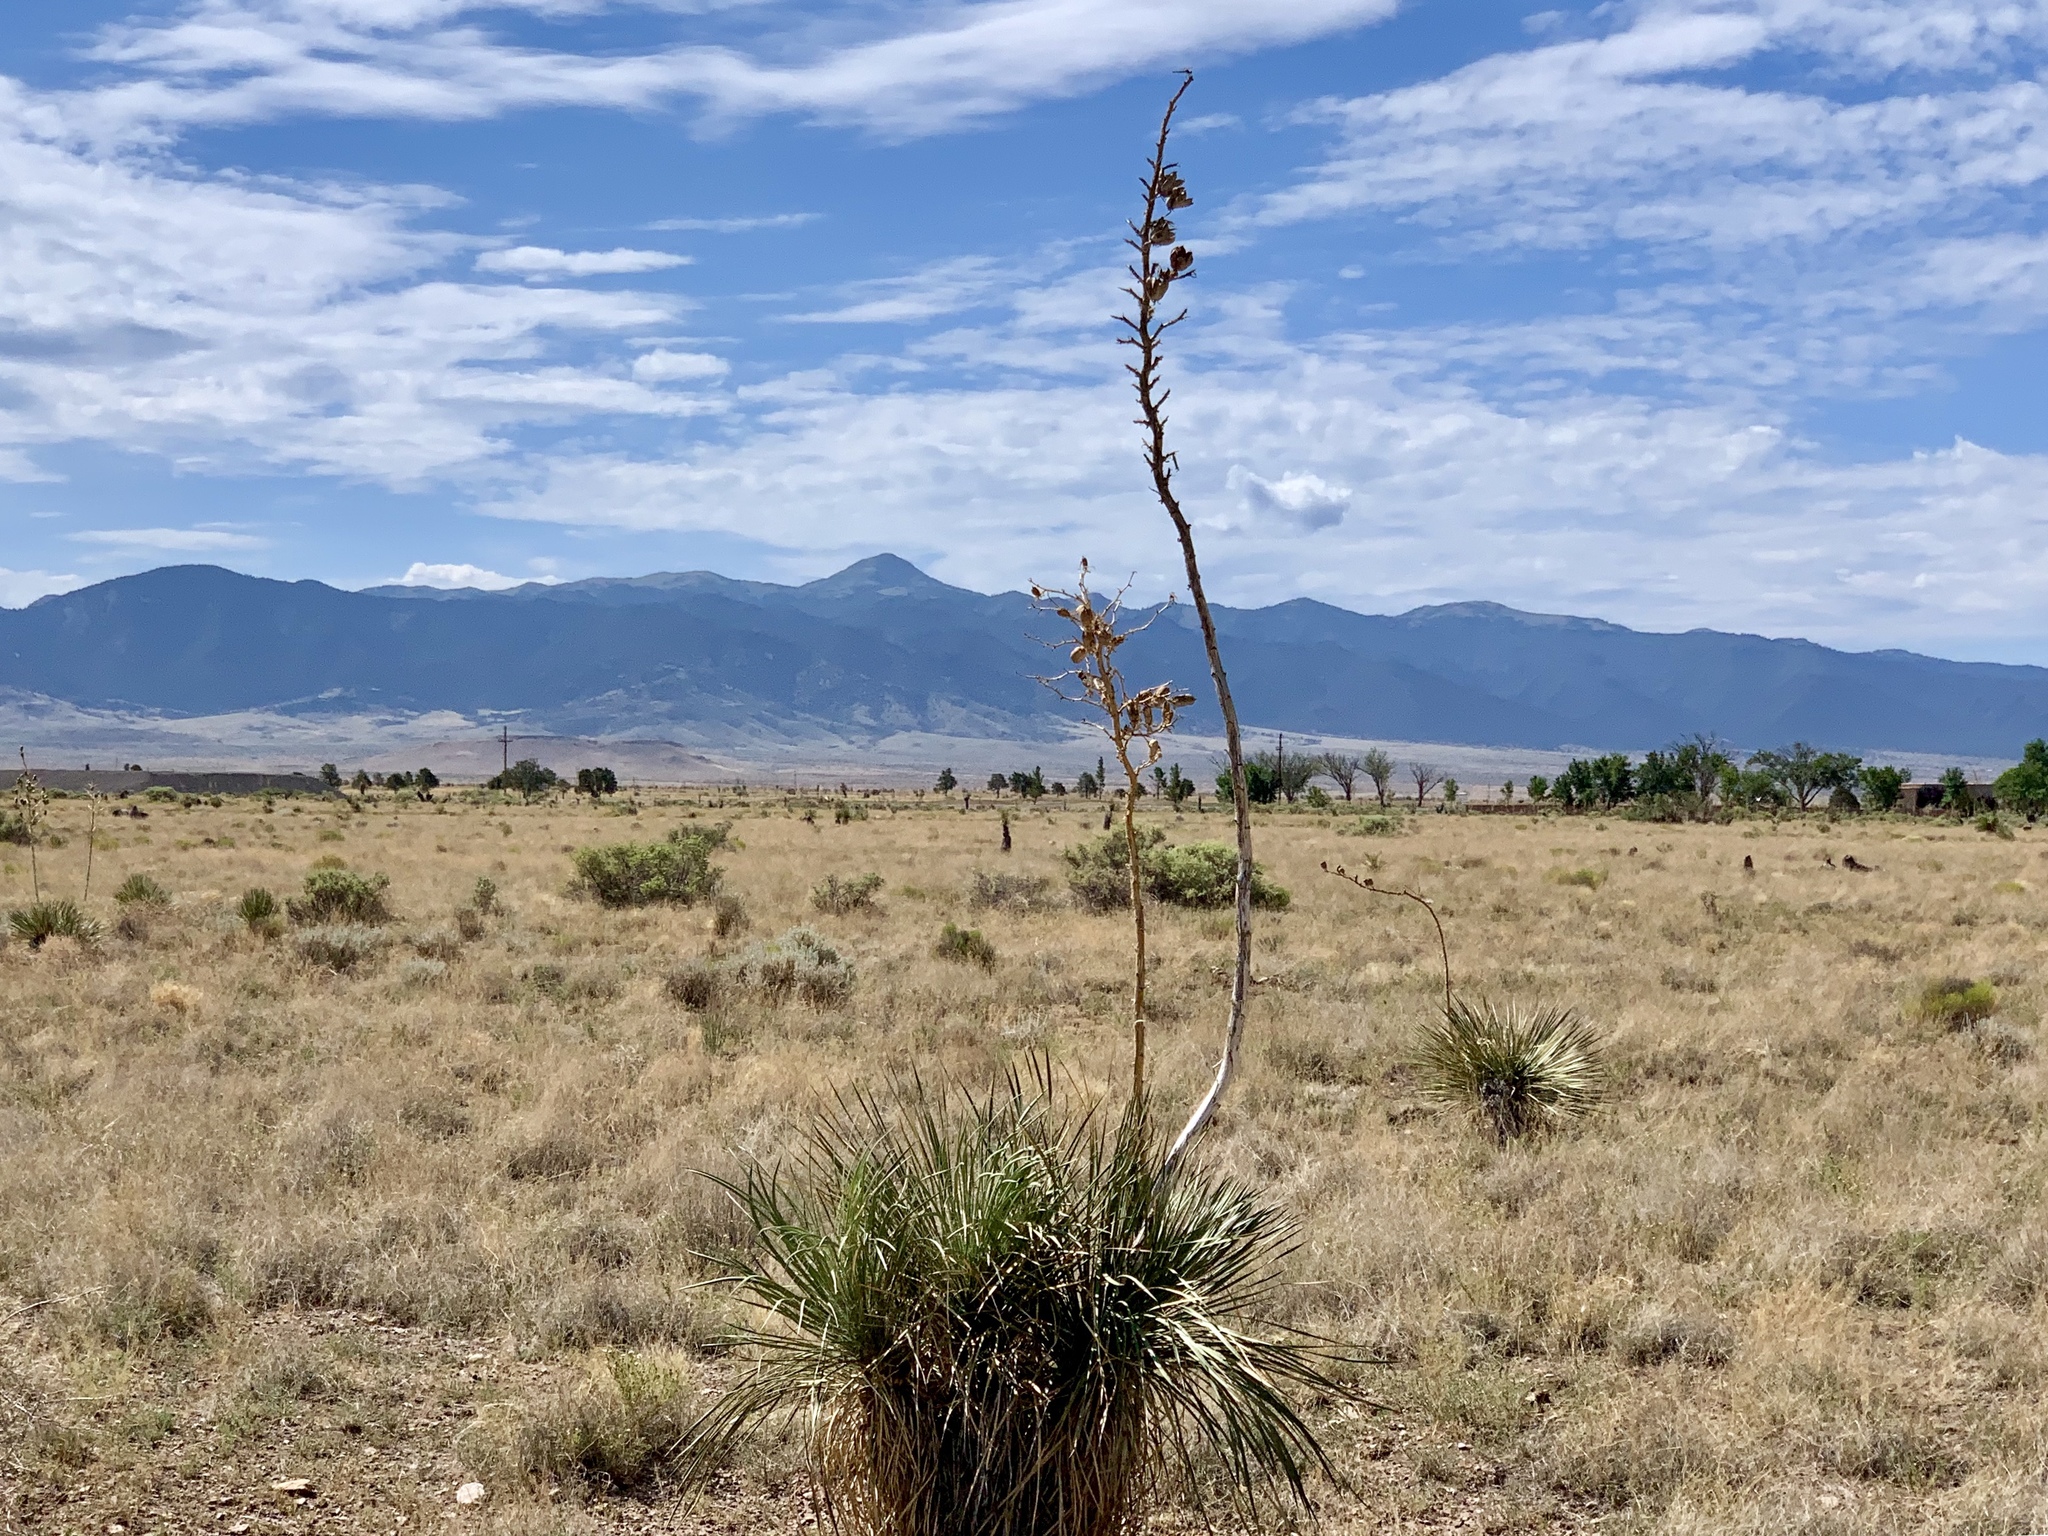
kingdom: Plantae
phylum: Tracheophyta
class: Liliopsida
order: Asparagales
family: Asparagaceae
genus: Yucca
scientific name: Yucca elata
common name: Palmella
